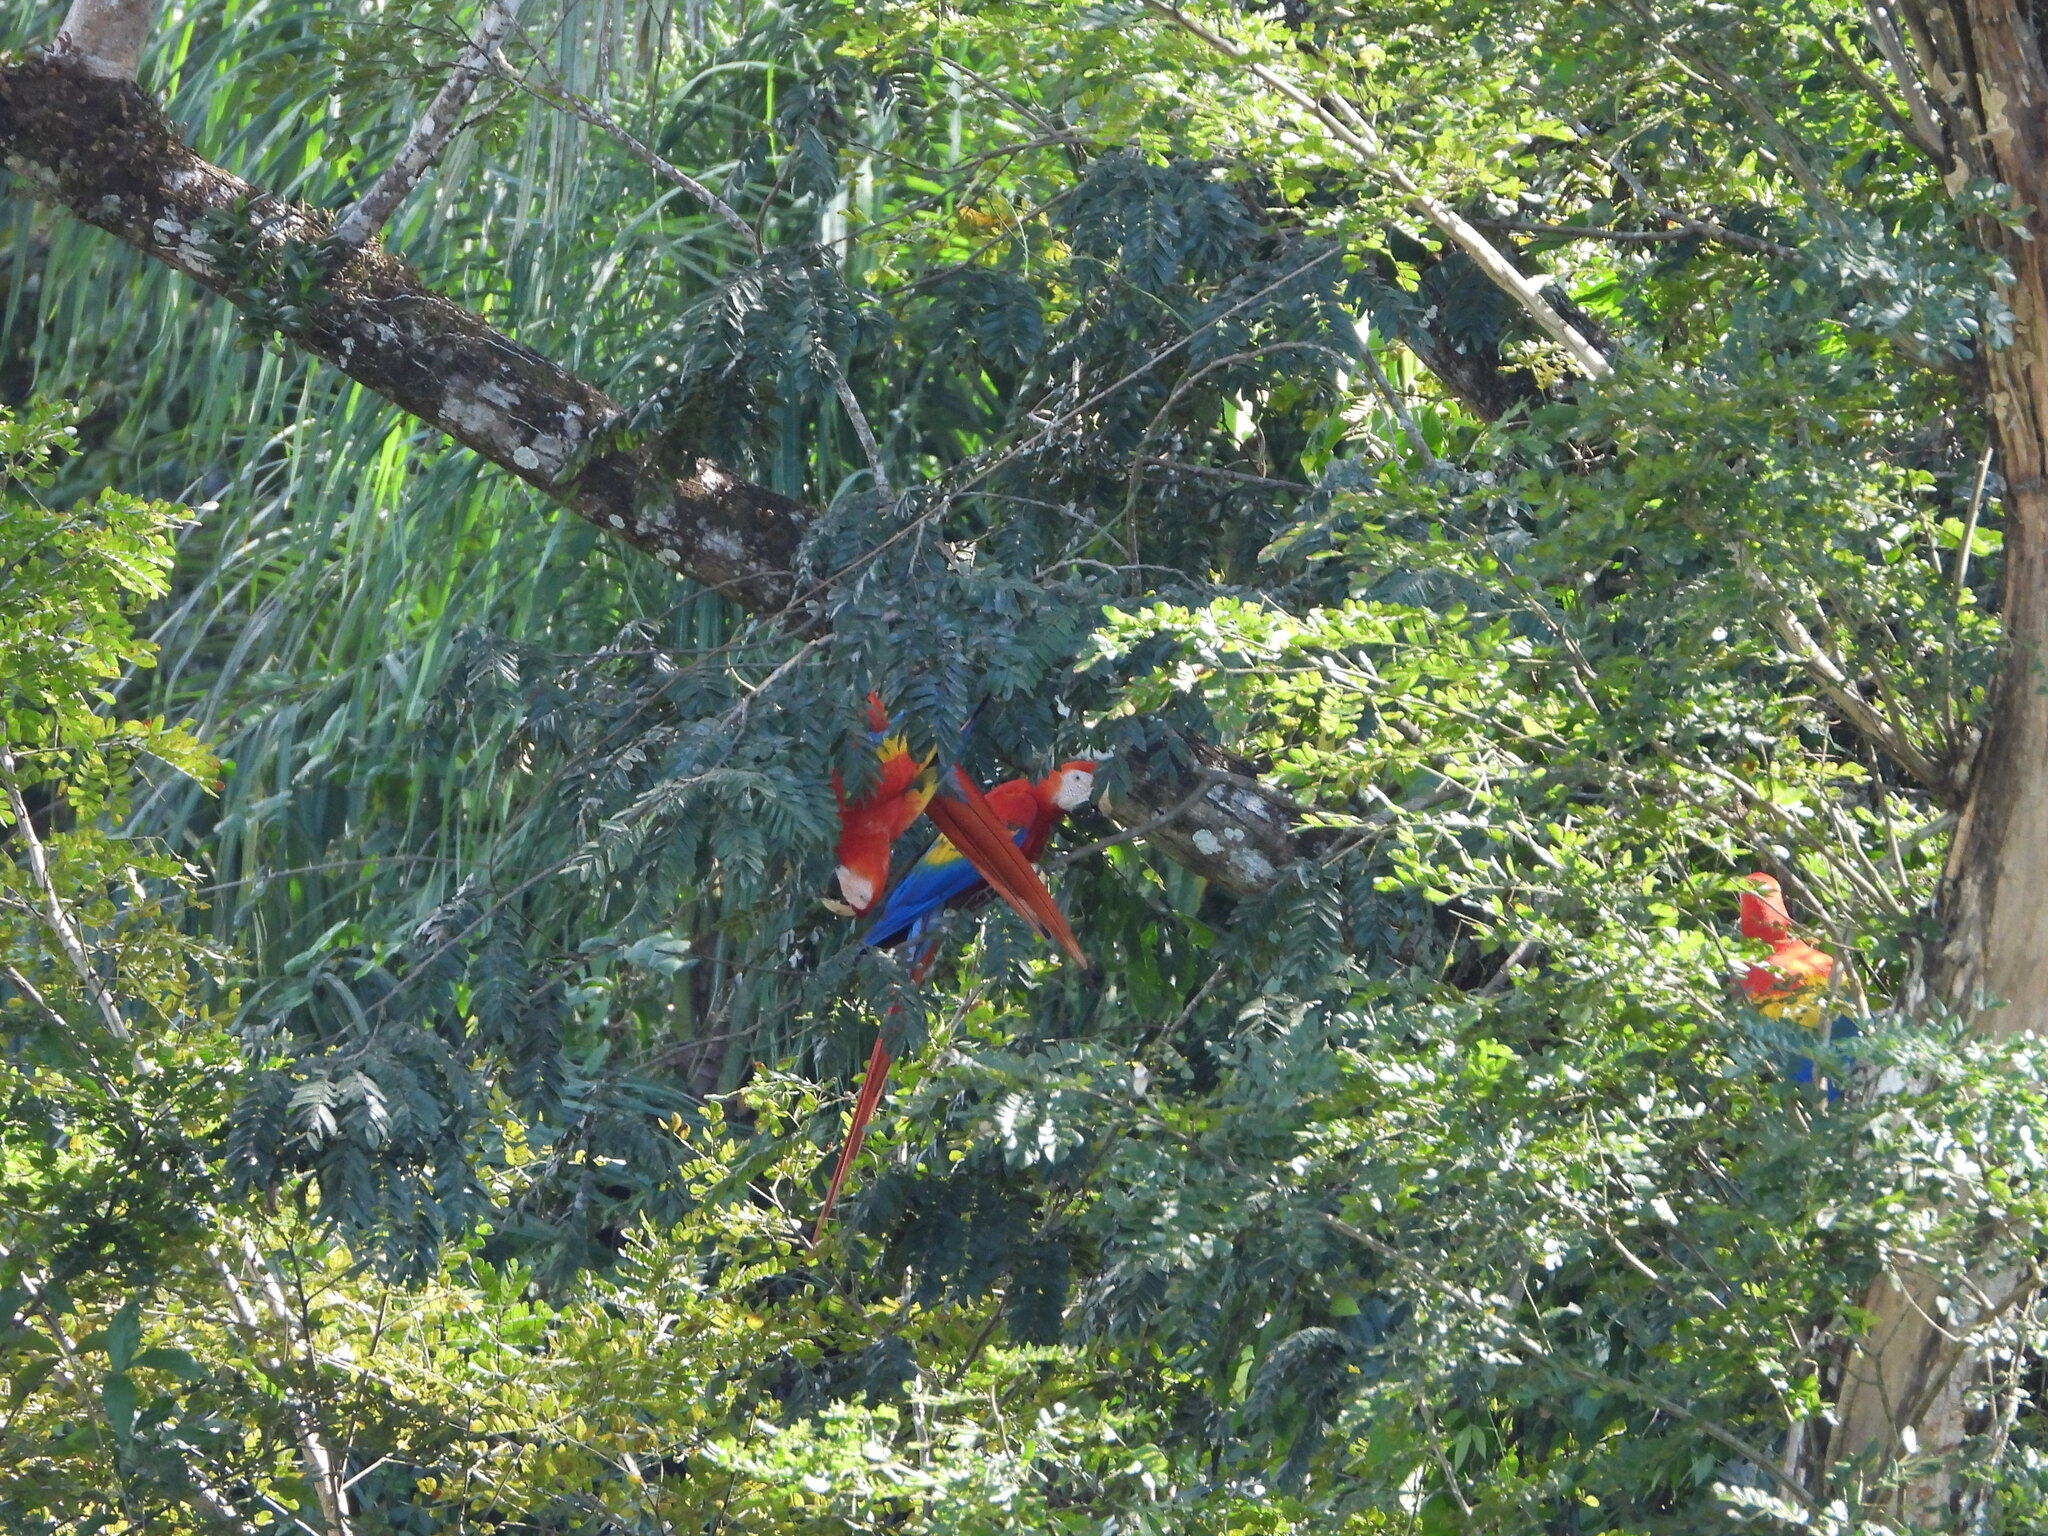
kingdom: Animalia
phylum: Chordata
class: Aves
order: Psittaciformes
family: Psittacidae
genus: Ara
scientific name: Ara macao
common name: Scarlet macaw
